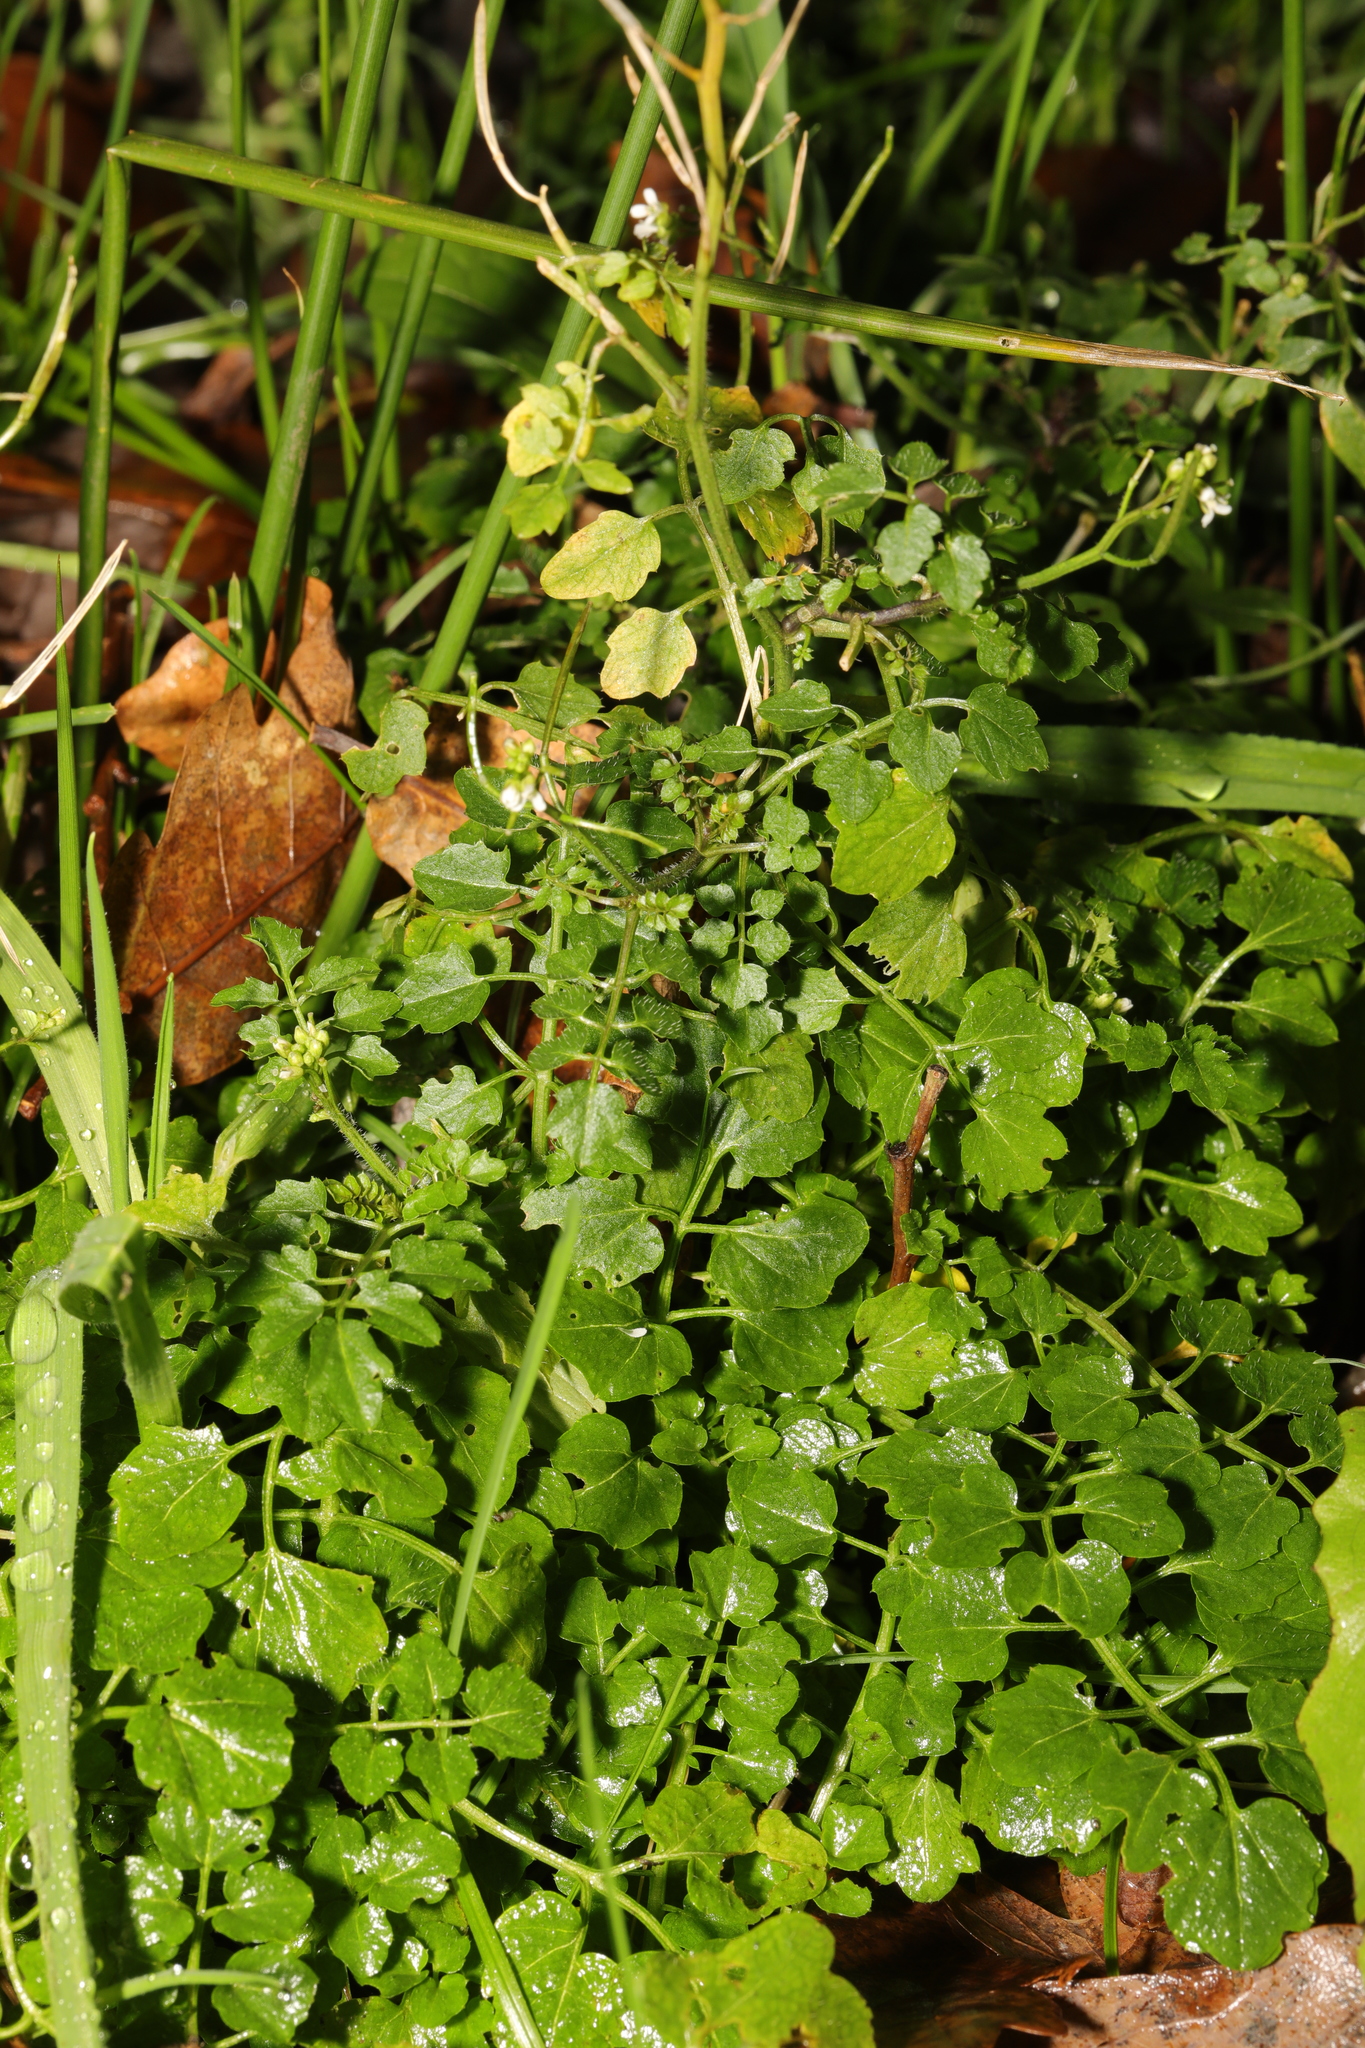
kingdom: Plantae
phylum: Tracheophyta
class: Magnoliopsida
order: Brassicales
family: Brassicaceae
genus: Cardamine
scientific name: Cardamine flexuosa
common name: Woodland bittercress
